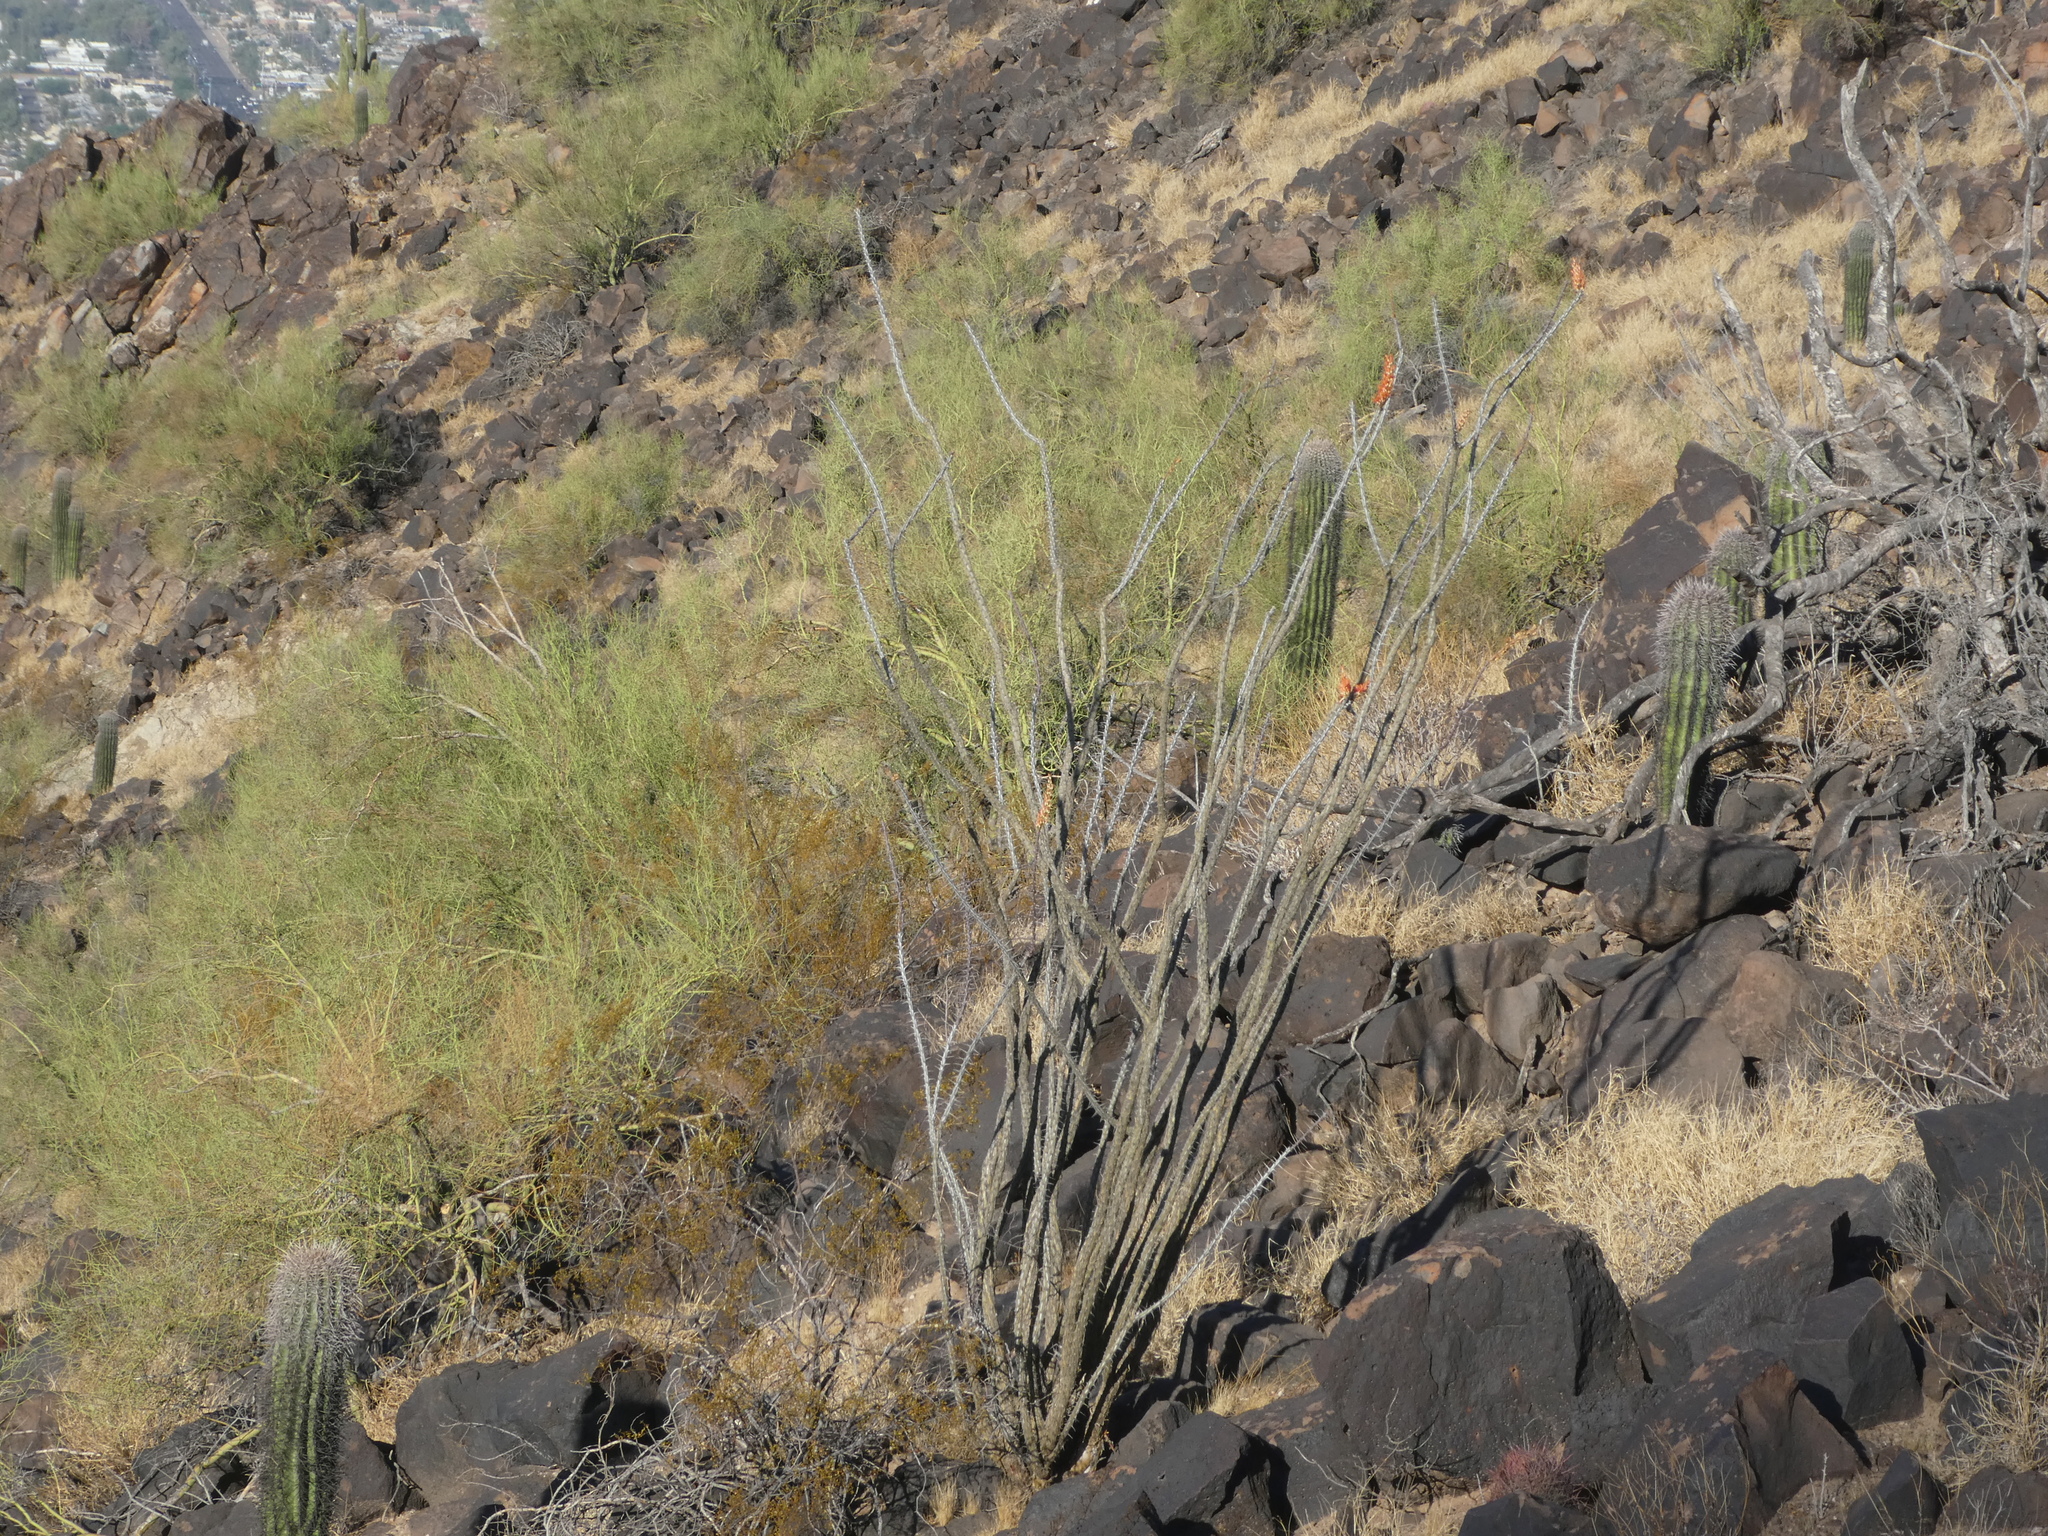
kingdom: Plantae
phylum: Tracheophyta
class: Magnoliopsida
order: Ericales
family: Fouquieriaceae
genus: Fouquieria
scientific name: Fouquieria splendens
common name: Vine-cactus
